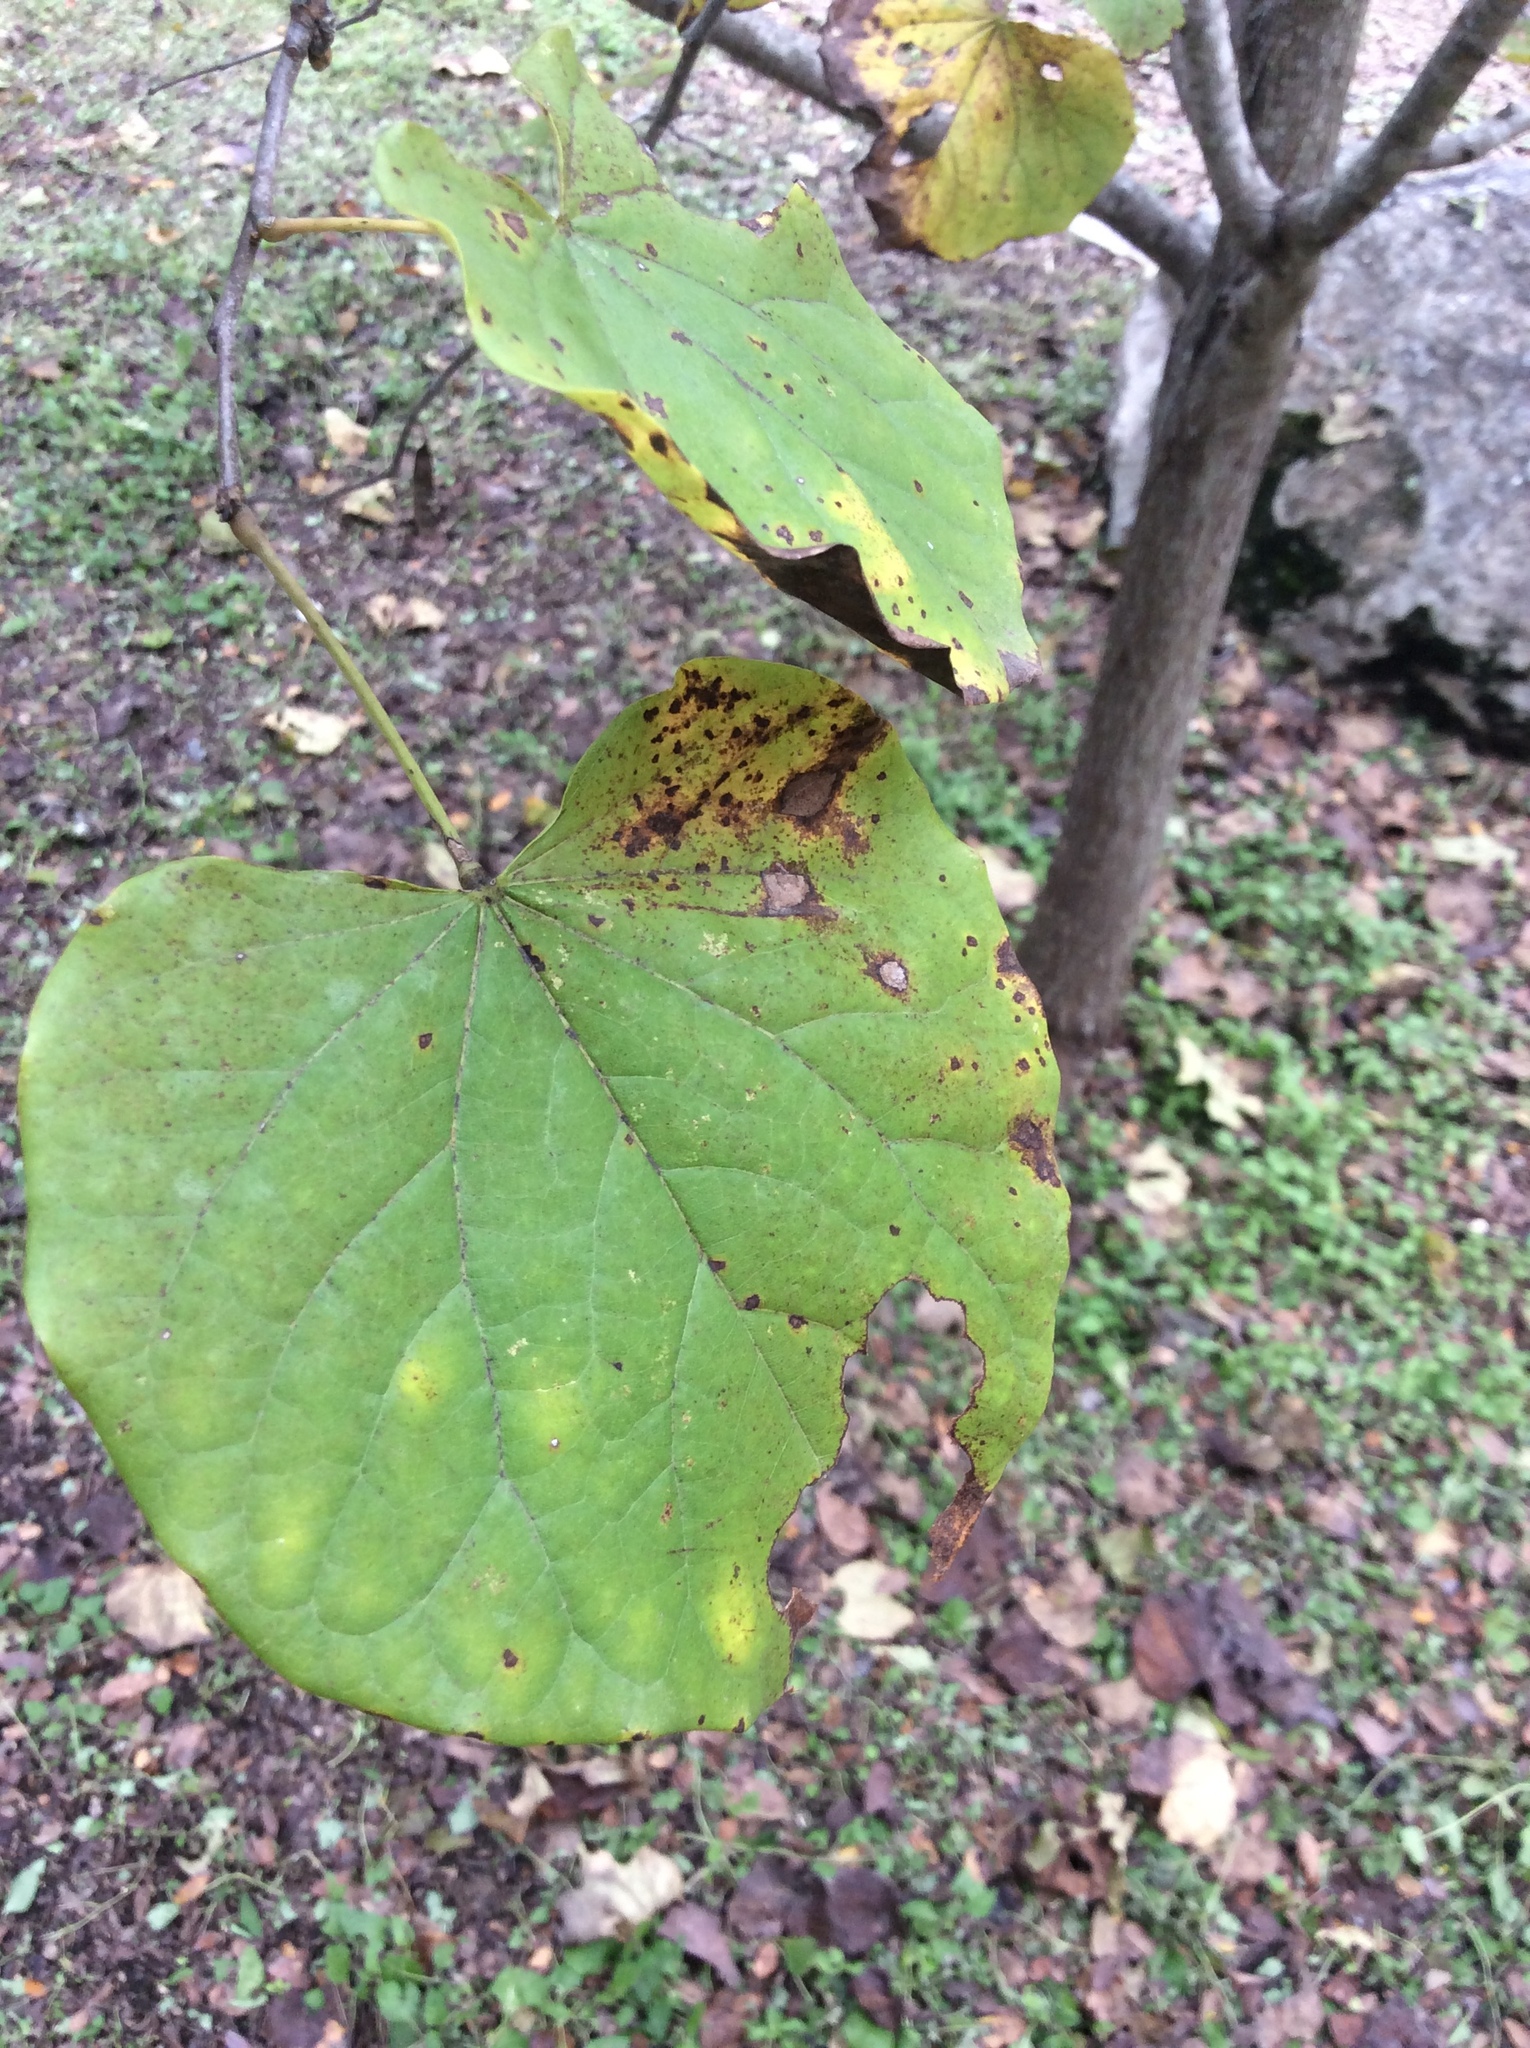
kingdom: Plantae
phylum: Tracheophyta
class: Magnoliopsida
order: Fabales
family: Fabaceae
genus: Cercis
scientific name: Cercis canadensis
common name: Eastern redbud
